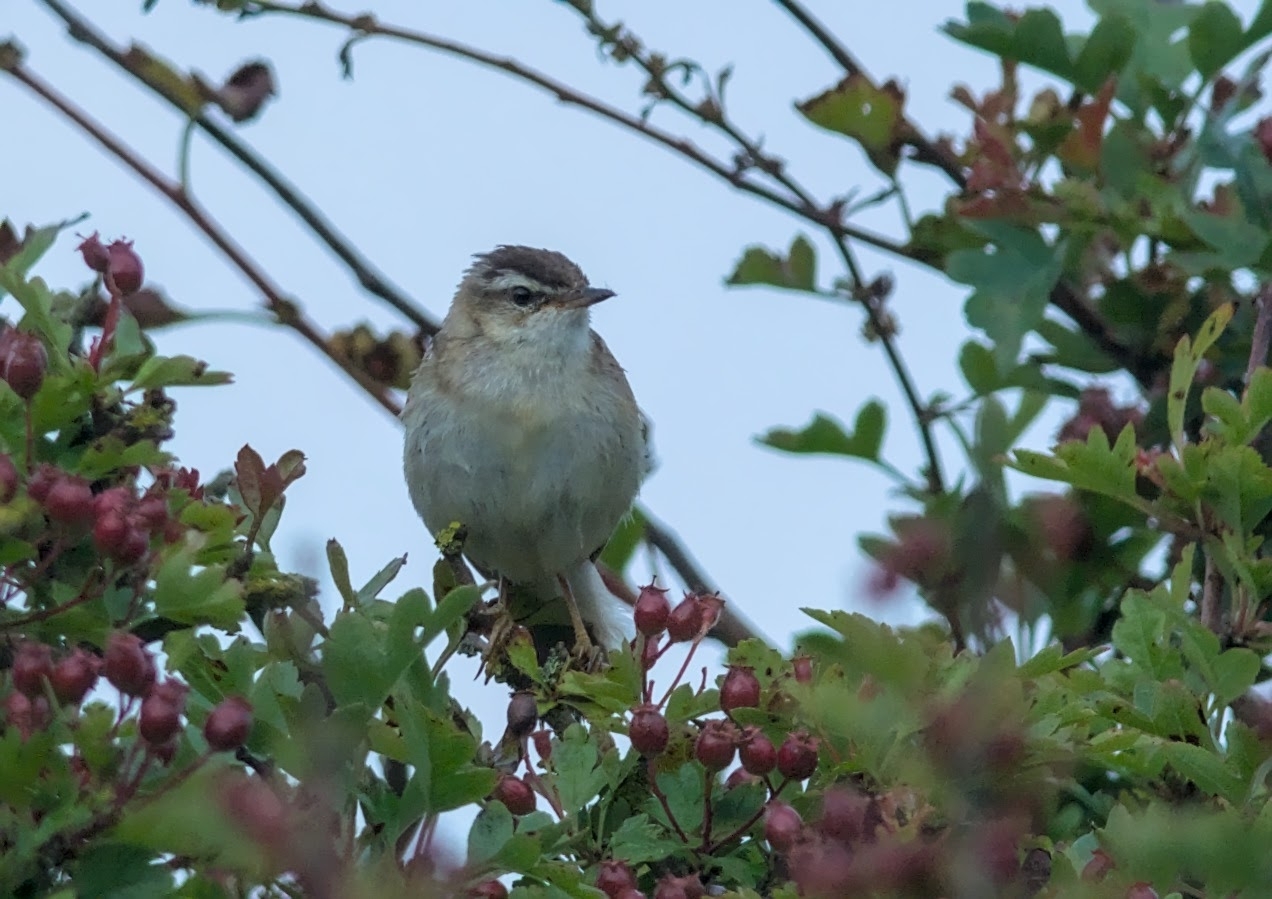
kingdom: Animalia
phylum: Chordata
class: Aves
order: Passeriformes
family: Acrocephalidae
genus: Acrocephalus
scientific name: Acrocephalus schoenobaenus
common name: Sedge warbler
